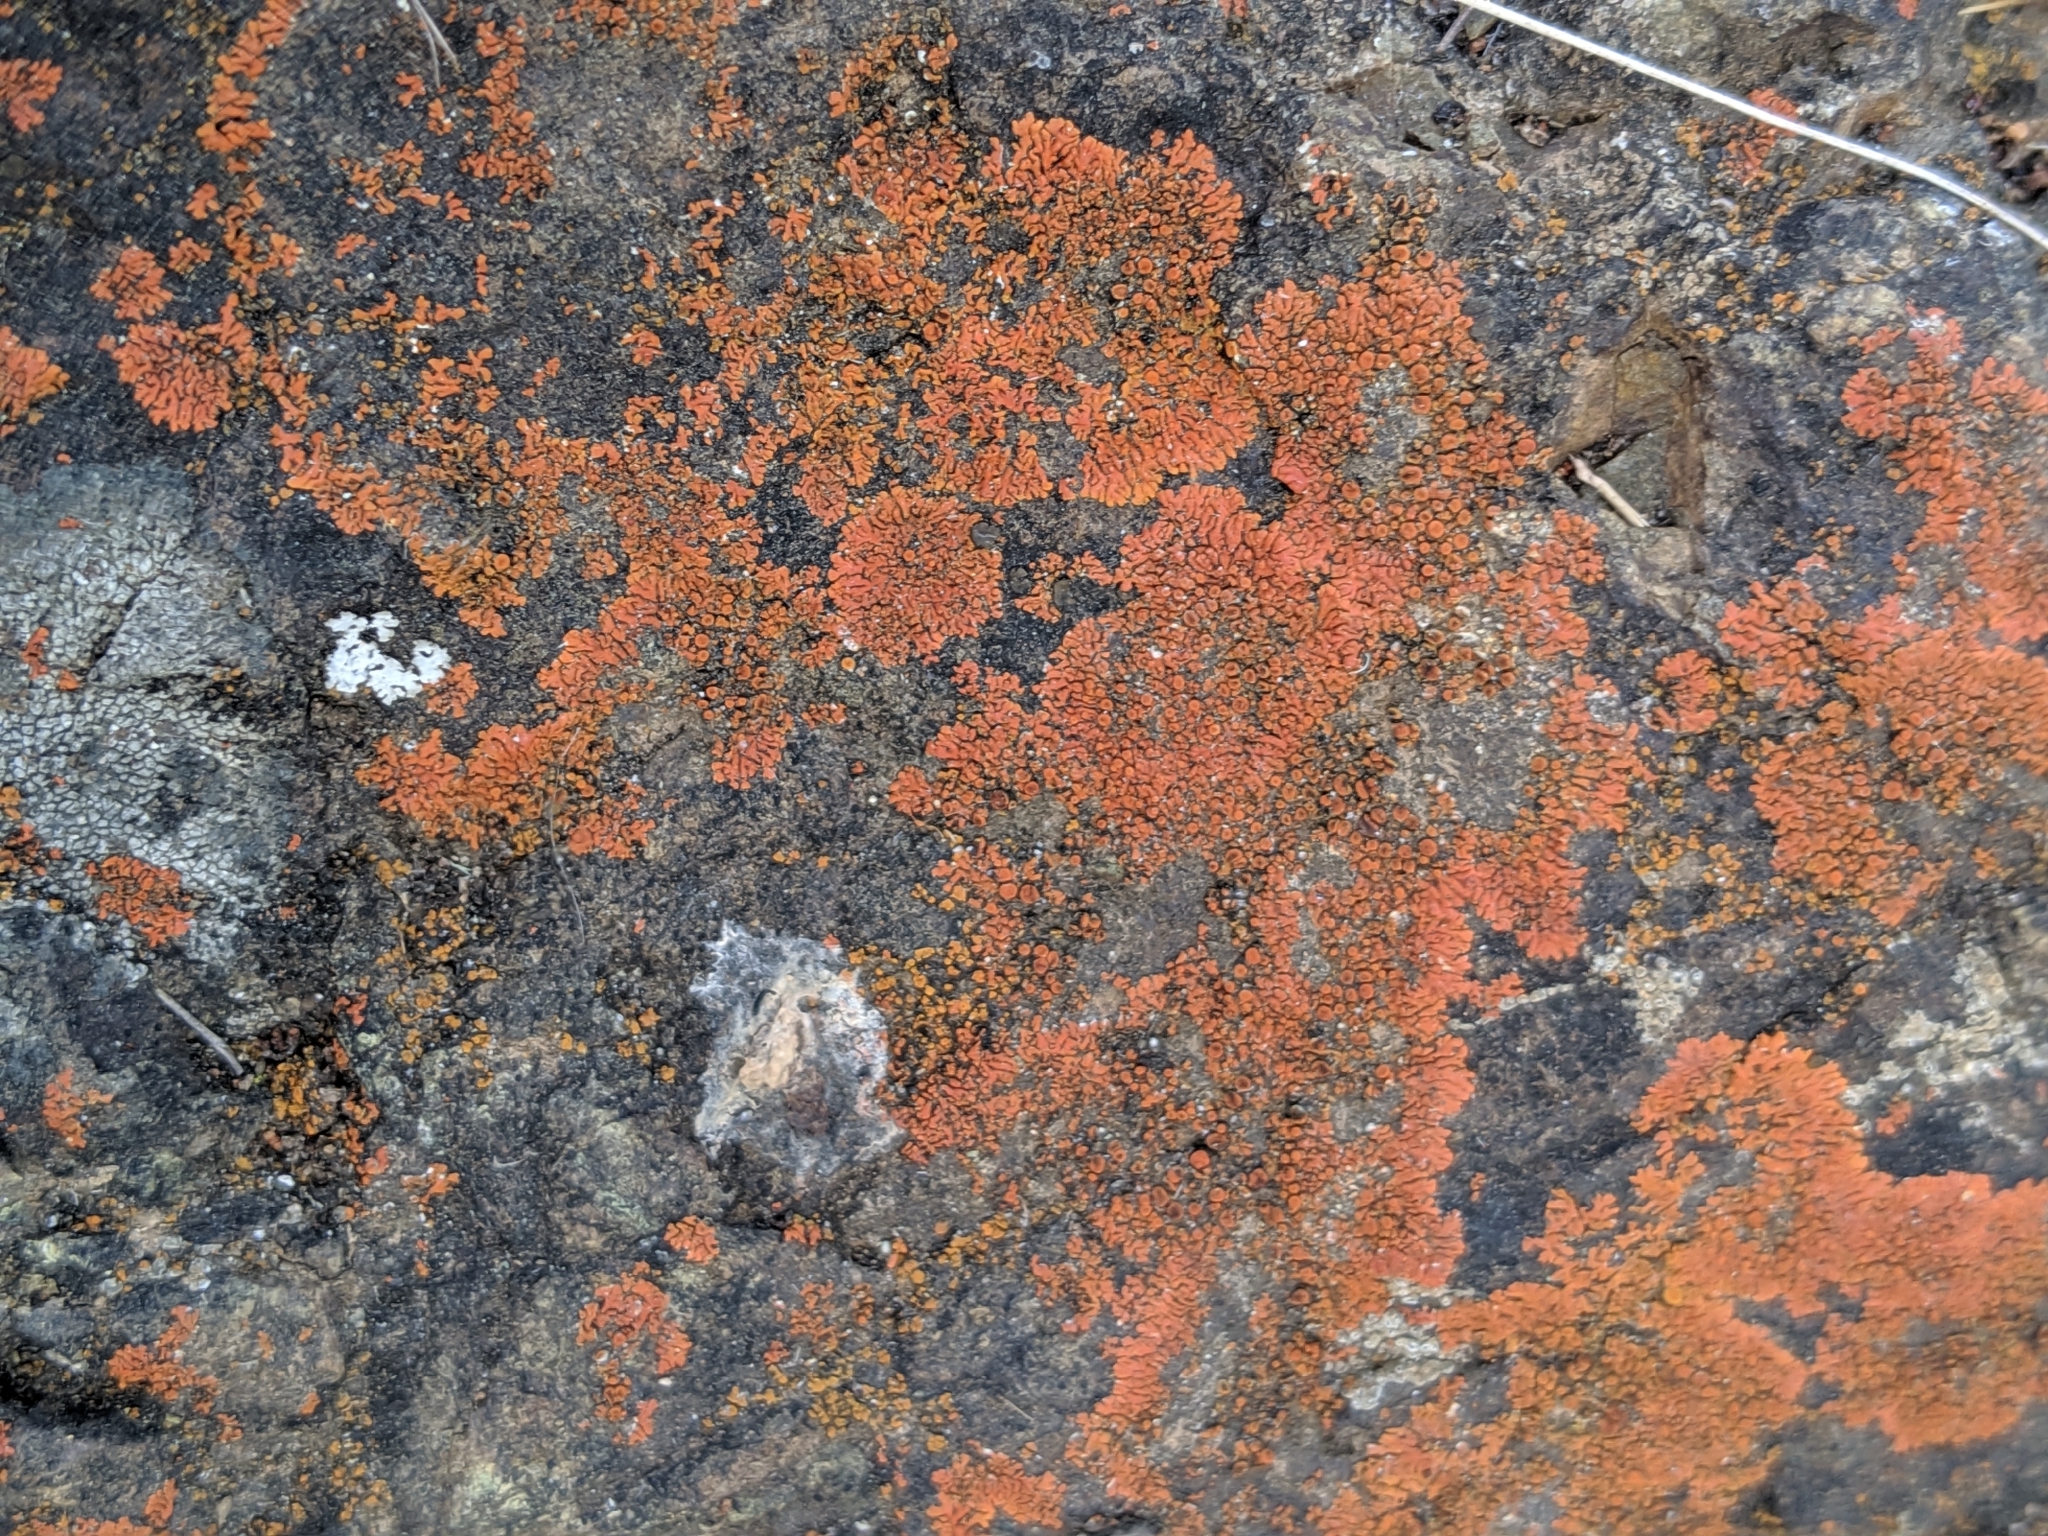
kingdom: Fungi
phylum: Ascomycota
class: Lecanoromycetes
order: Teloschistales
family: Teloschistaceae
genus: Igneoplaca
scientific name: Igneoplaca ignea
